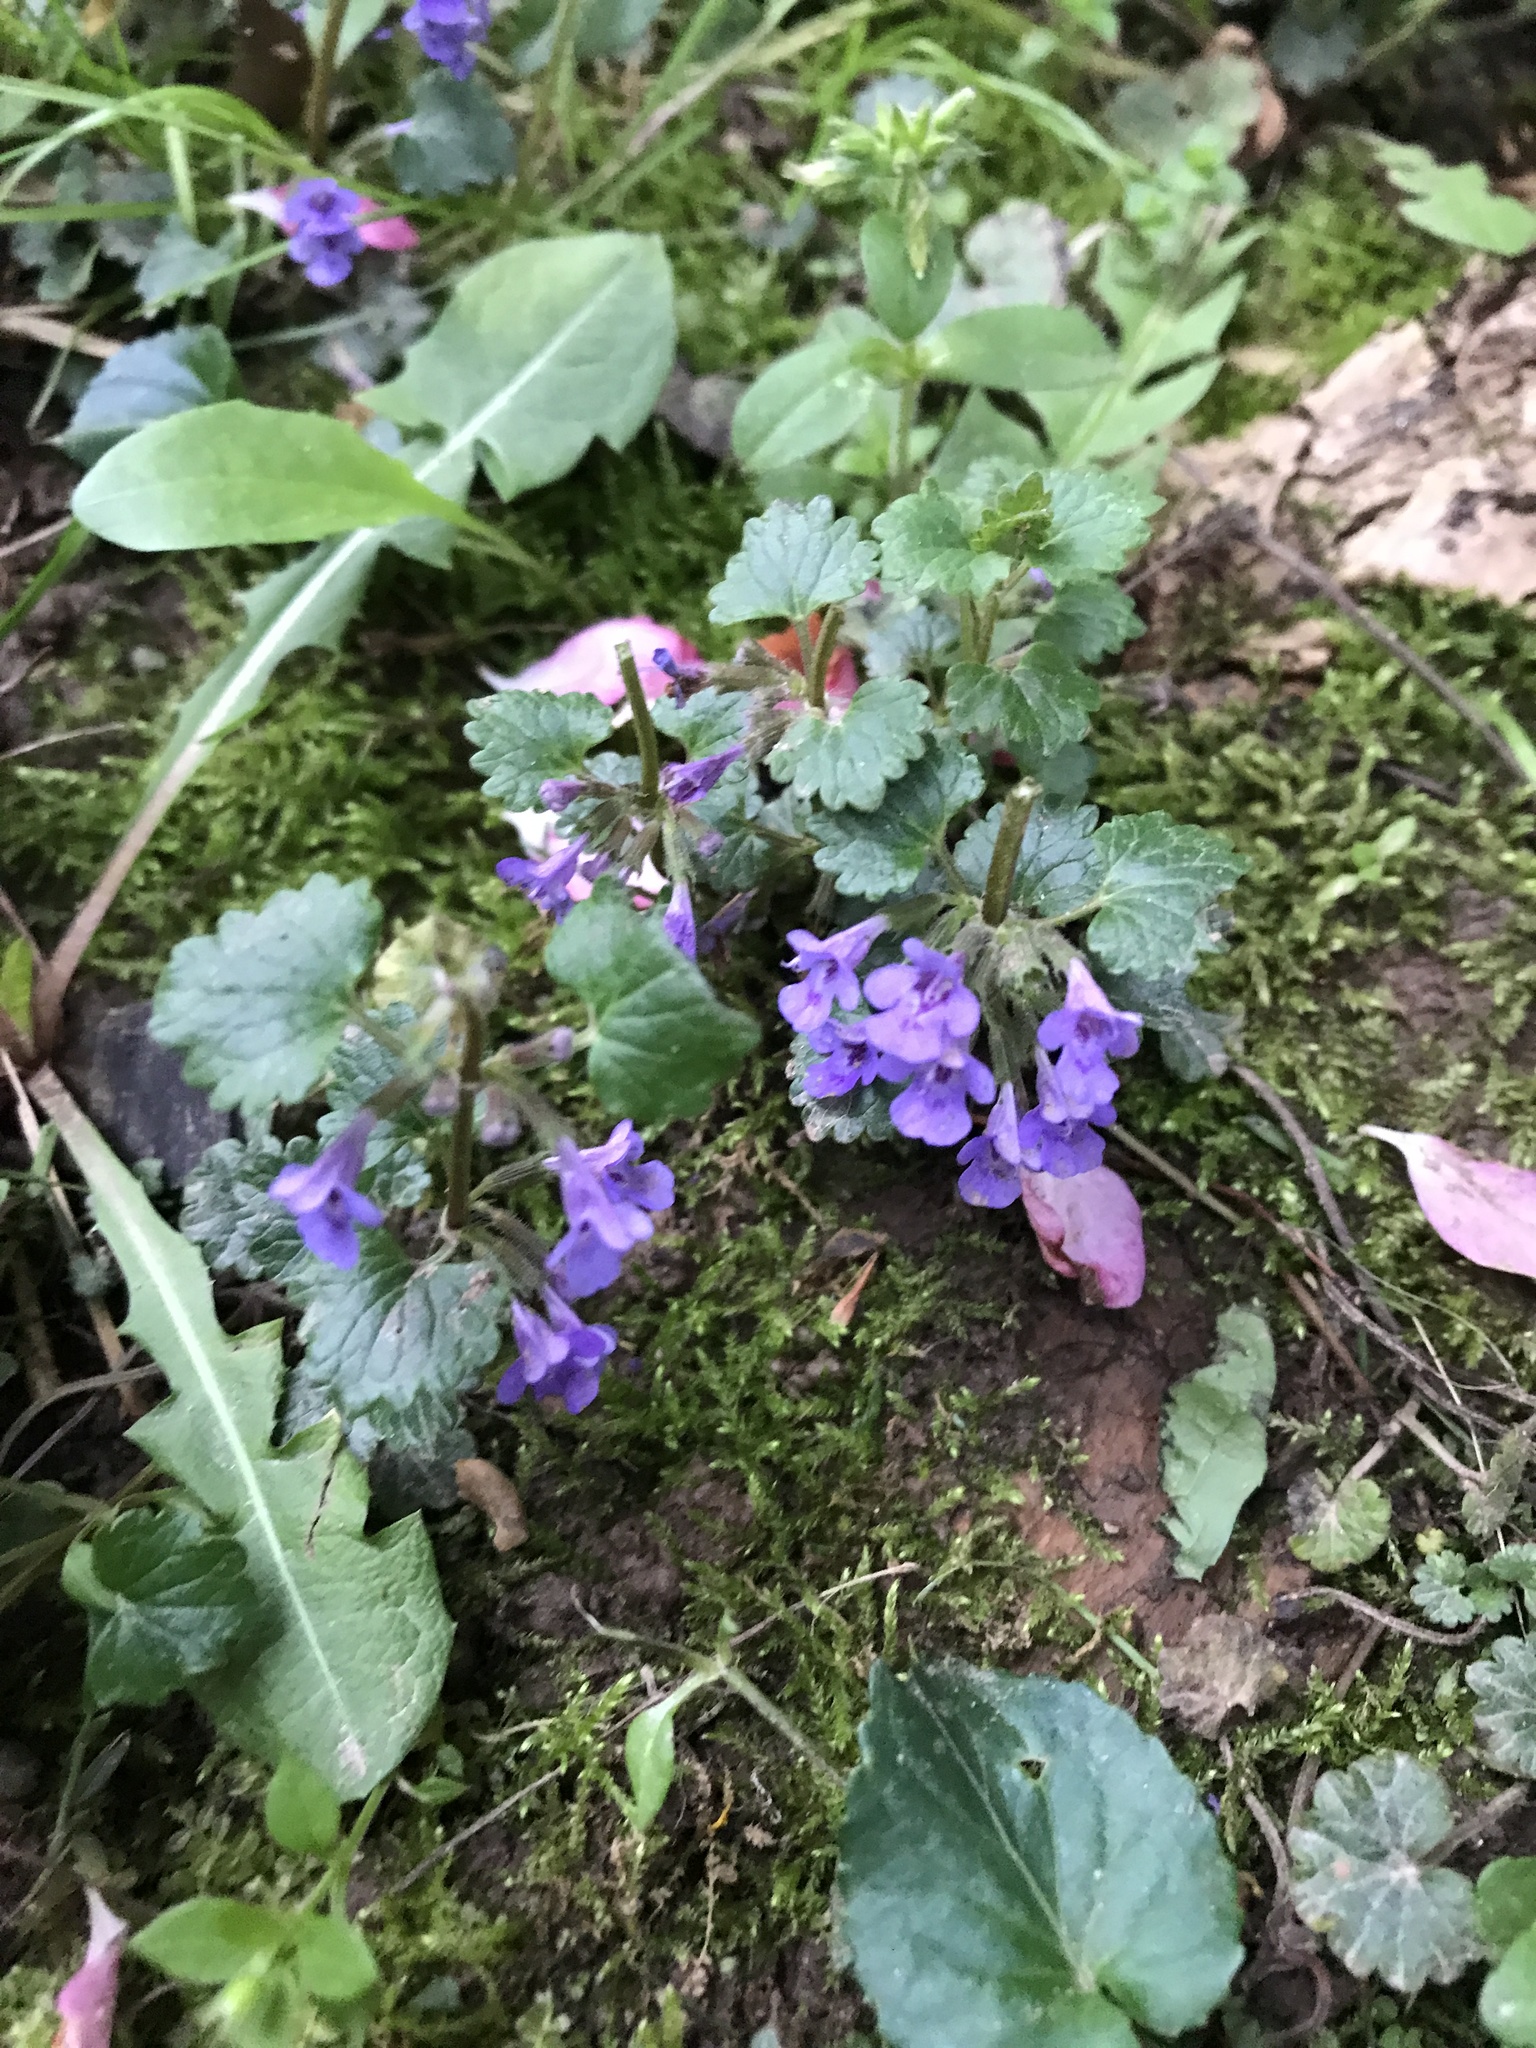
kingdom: Plantae
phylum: Tracheophyta
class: Magnoliopsida
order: Lamiales
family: Lamiaceae
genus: Glechoma
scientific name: Glechoma hederacea
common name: Ground ivy
